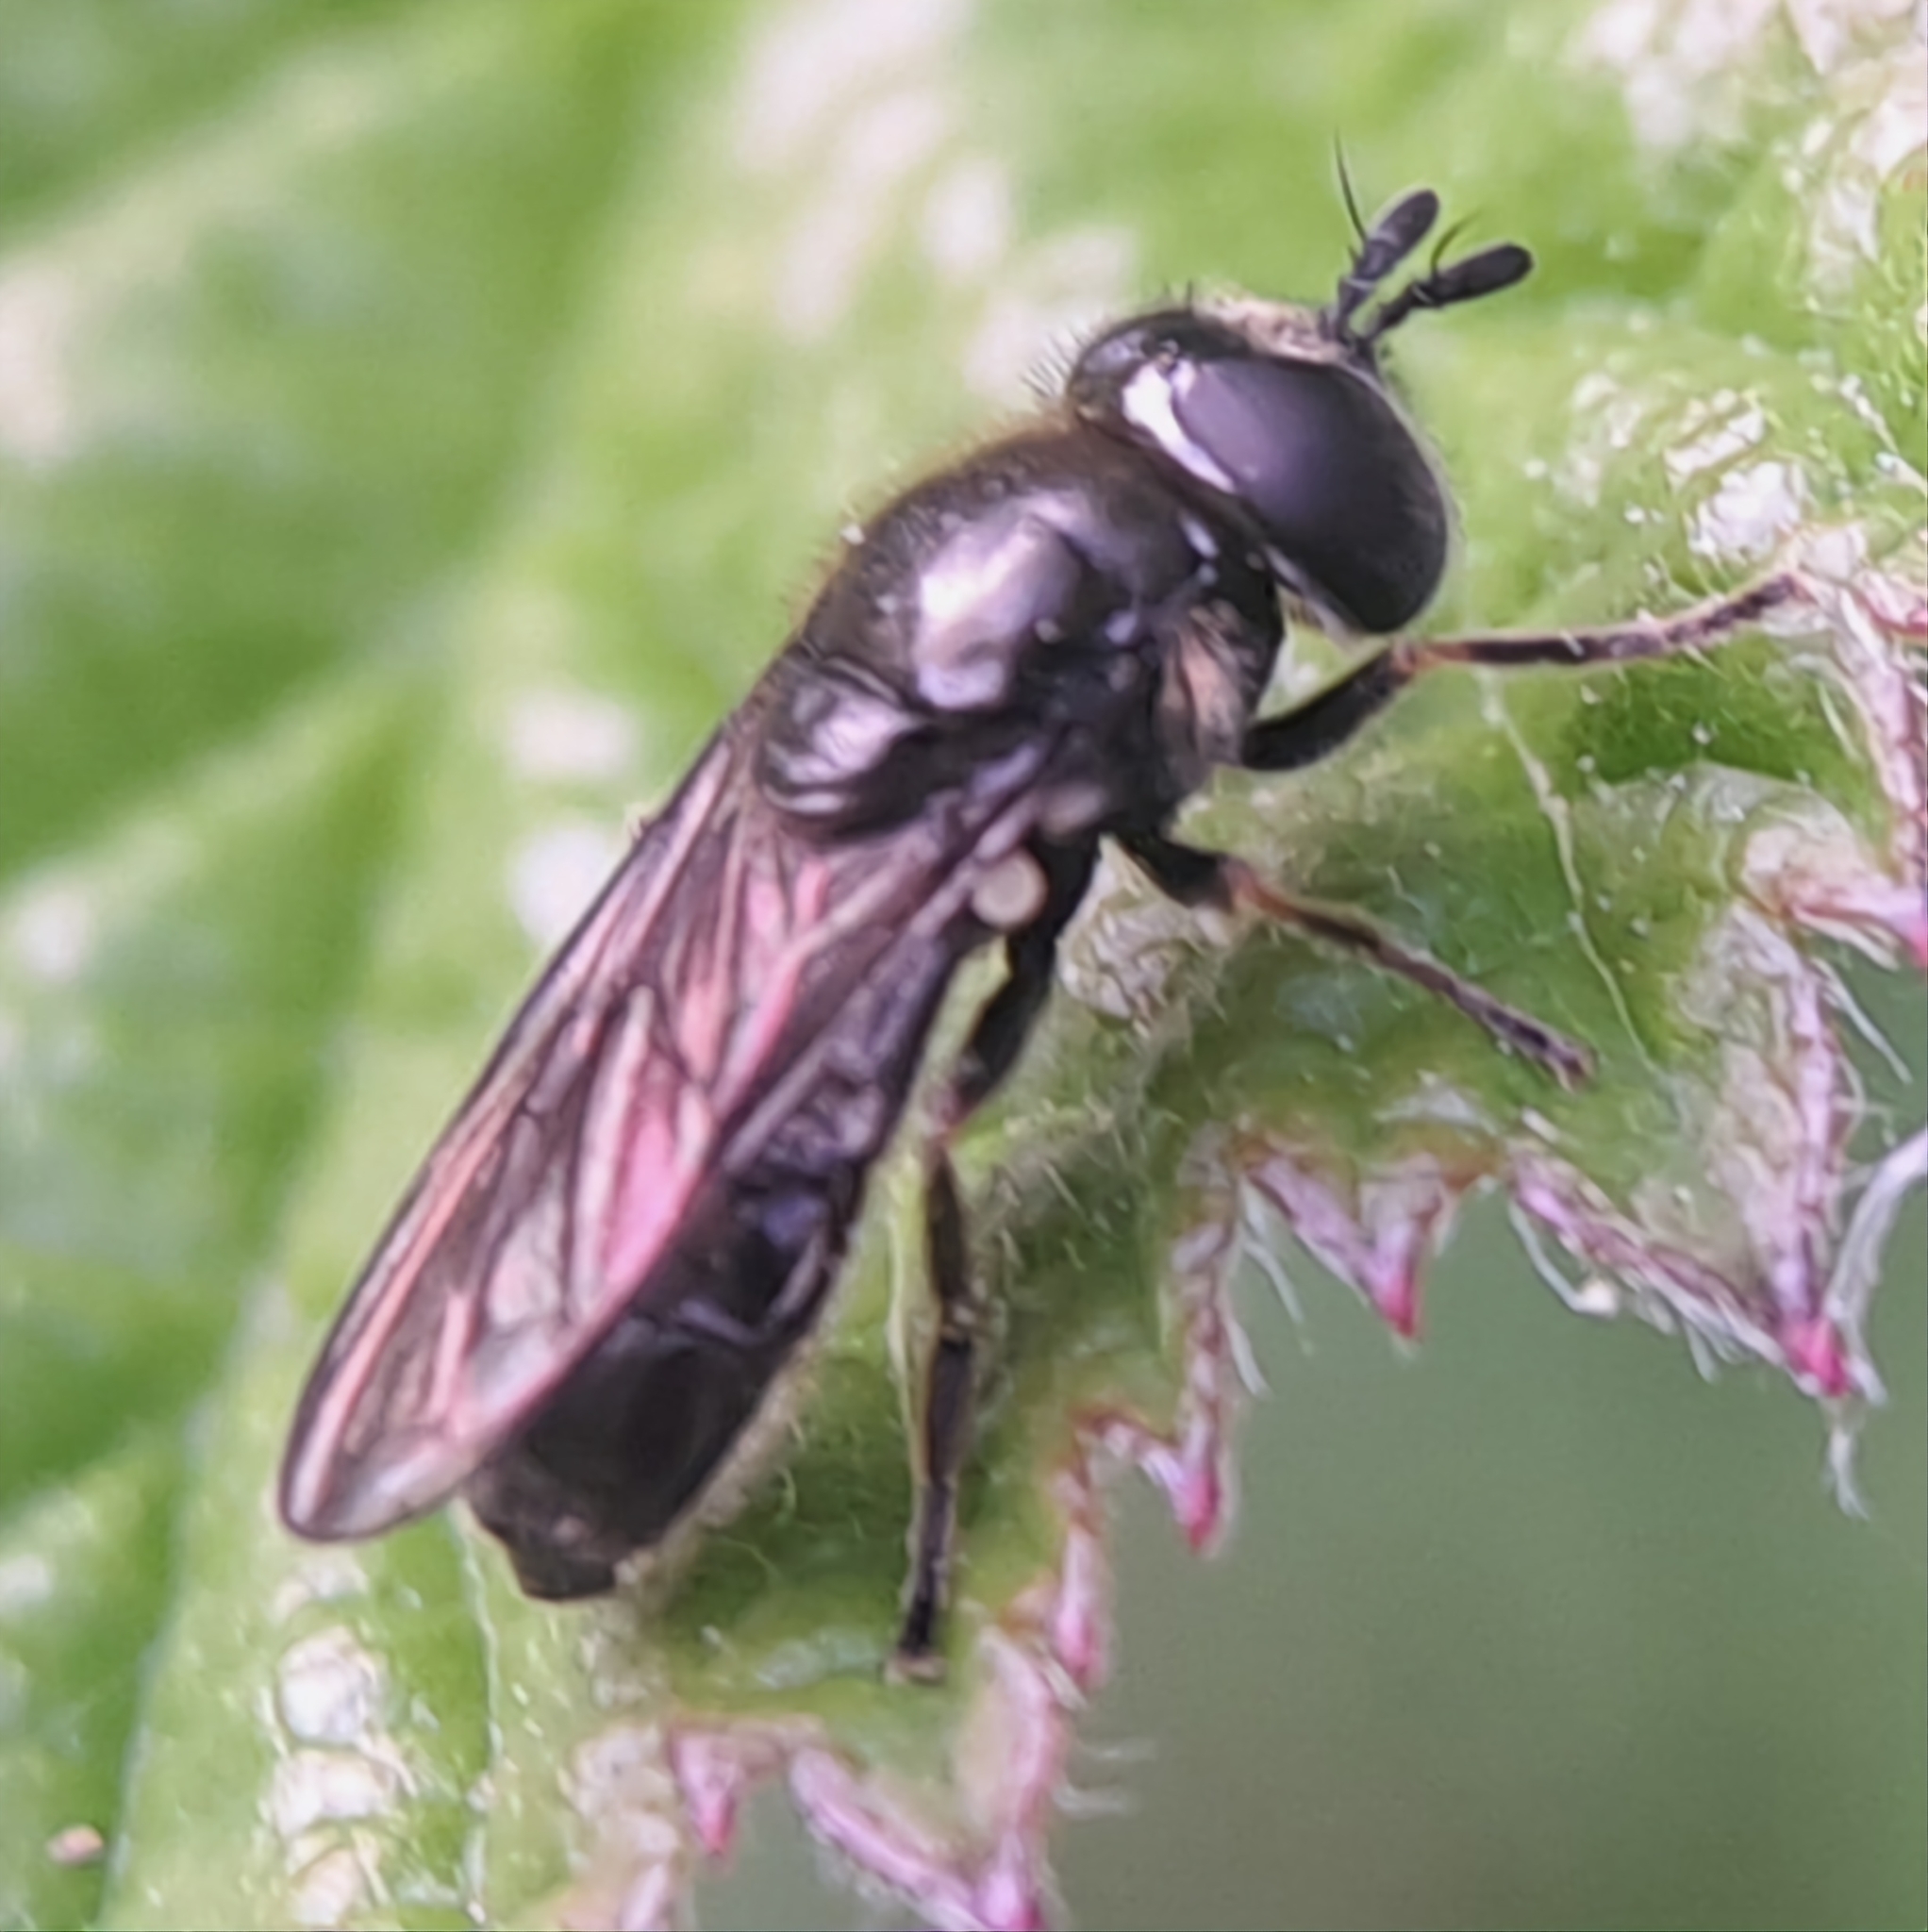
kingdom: Animalia
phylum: Arthropoda
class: Insecta
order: Diptera
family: Syrphidae
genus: Pipizella
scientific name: Pipizella
